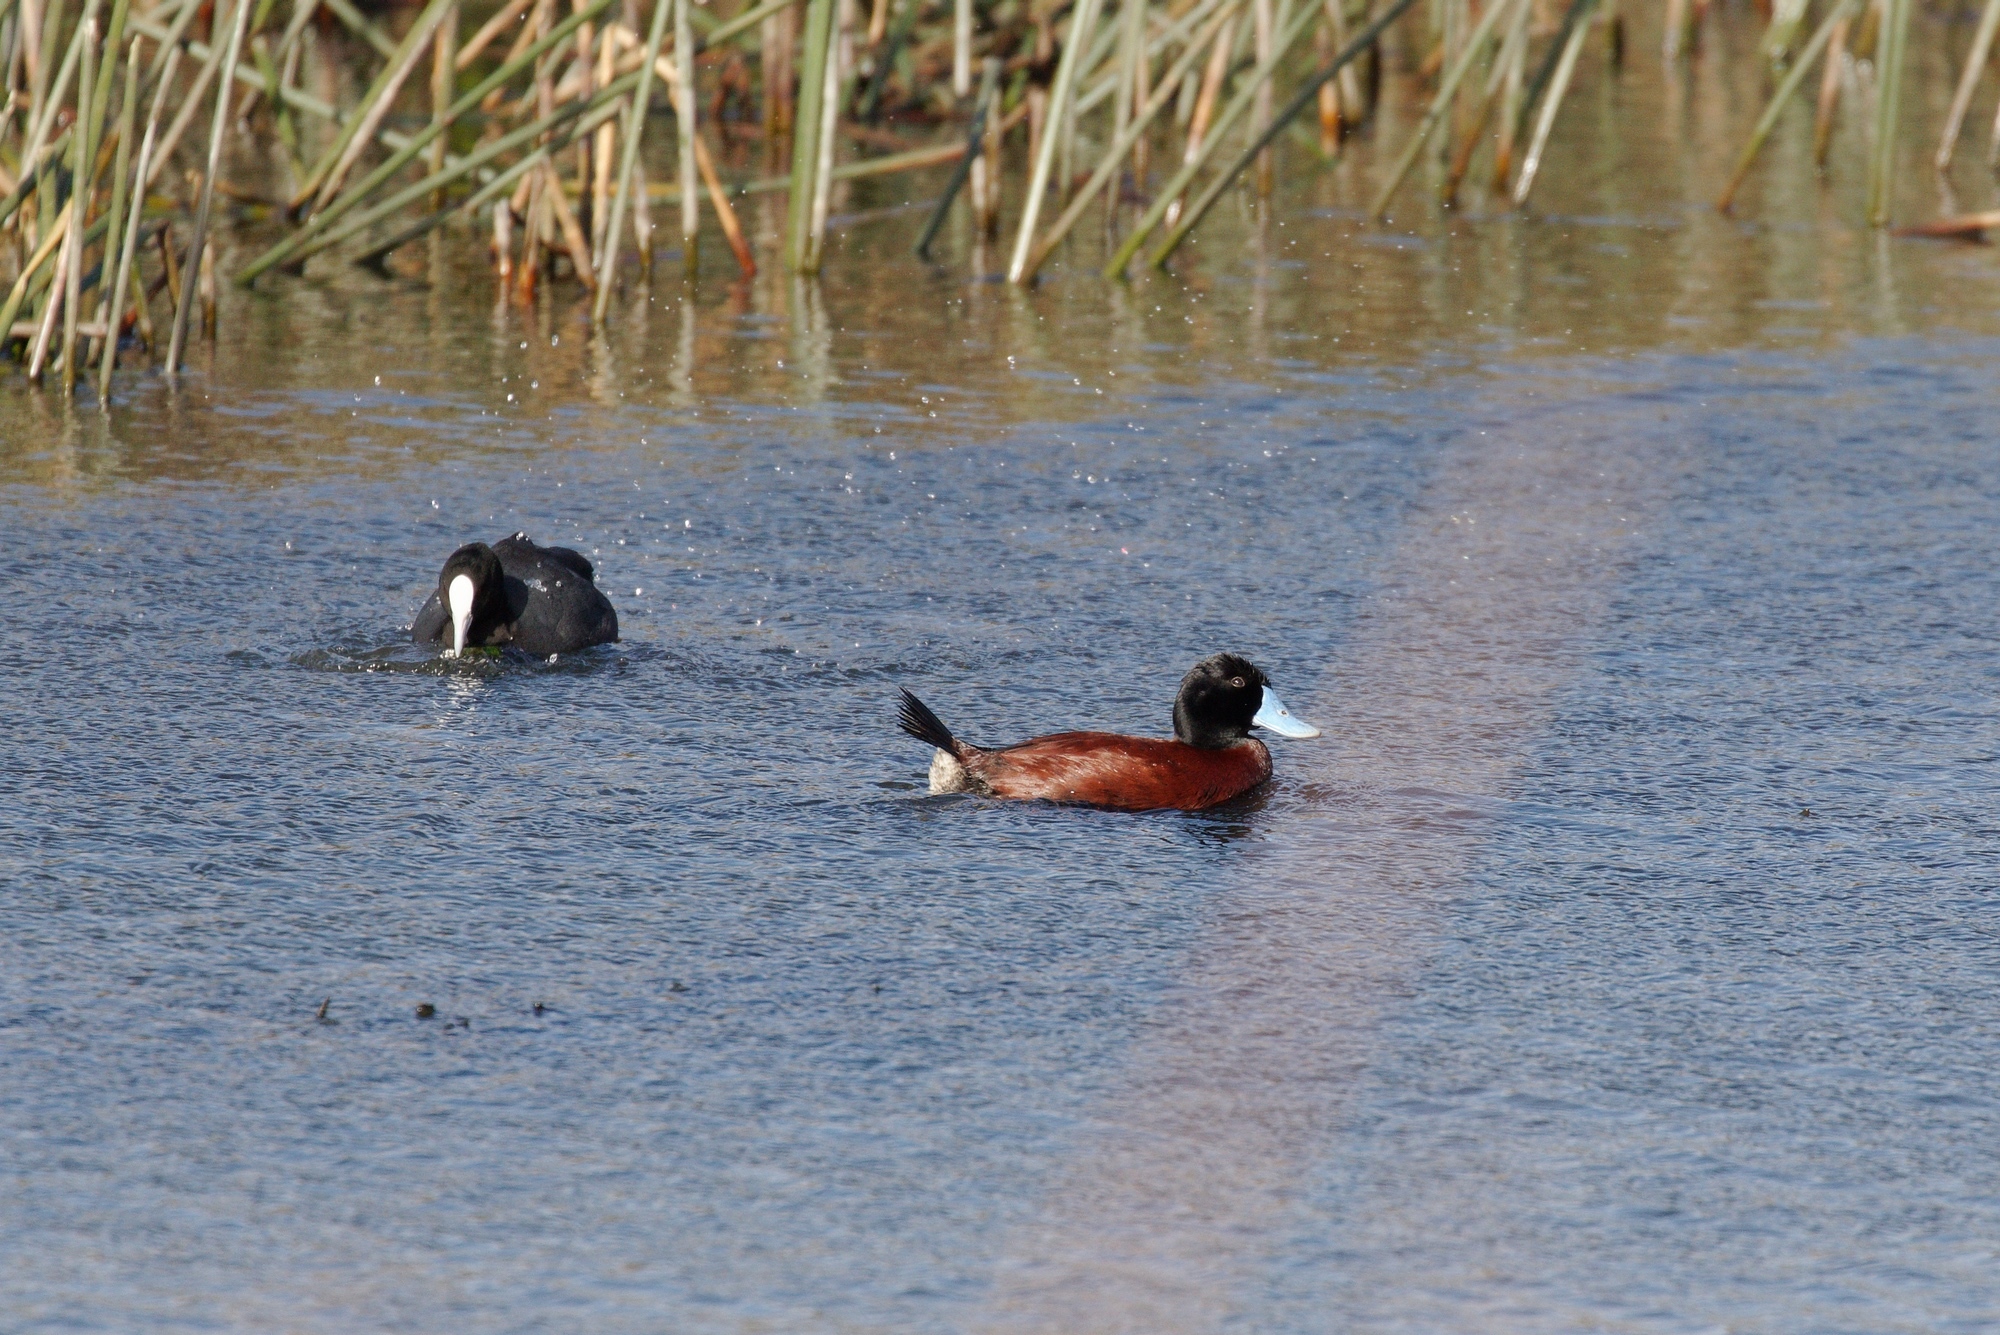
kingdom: Animalia
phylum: Chordata
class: Aves
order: Anseriformes
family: Anatidae
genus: Oxyura
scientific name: Oxyura australis
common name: Blue-billed duck
